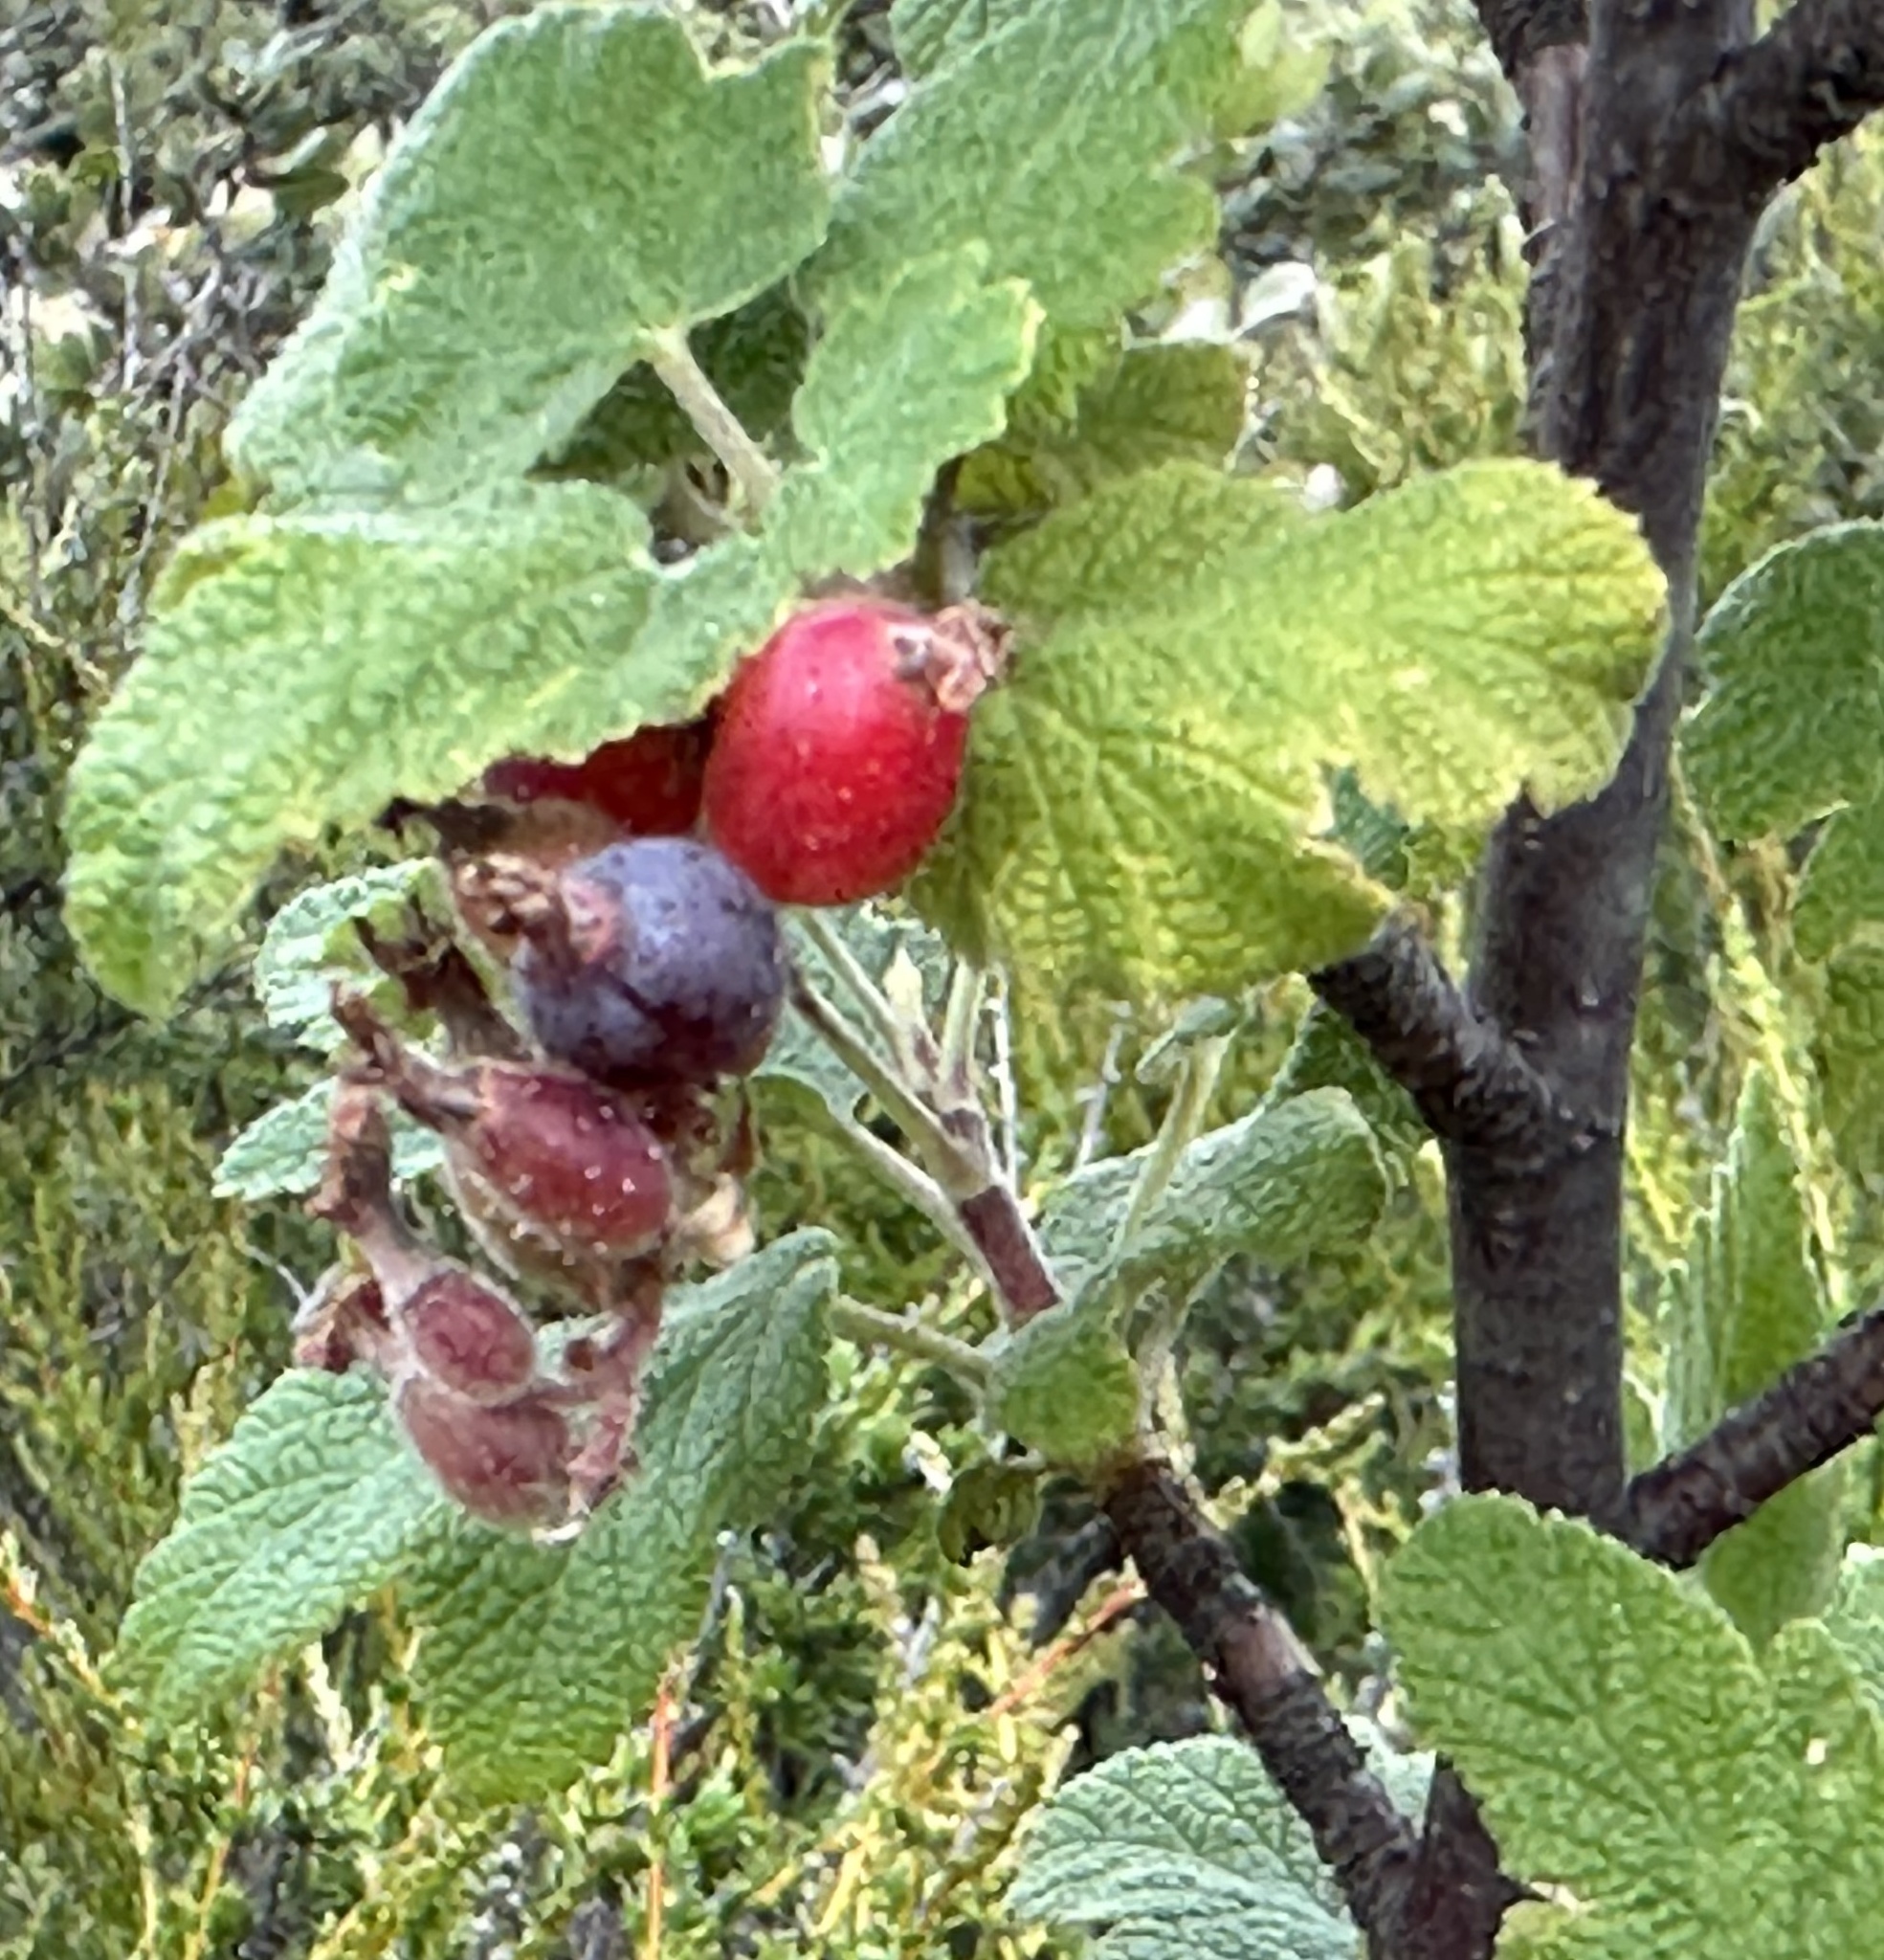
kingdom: Plantae
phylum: Tracheophyta
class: Magnoliopsida
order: Saxifragales
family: Grossulariaceae
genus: Ribes
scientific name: Ribes malvaceum
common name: Chaparral currant
